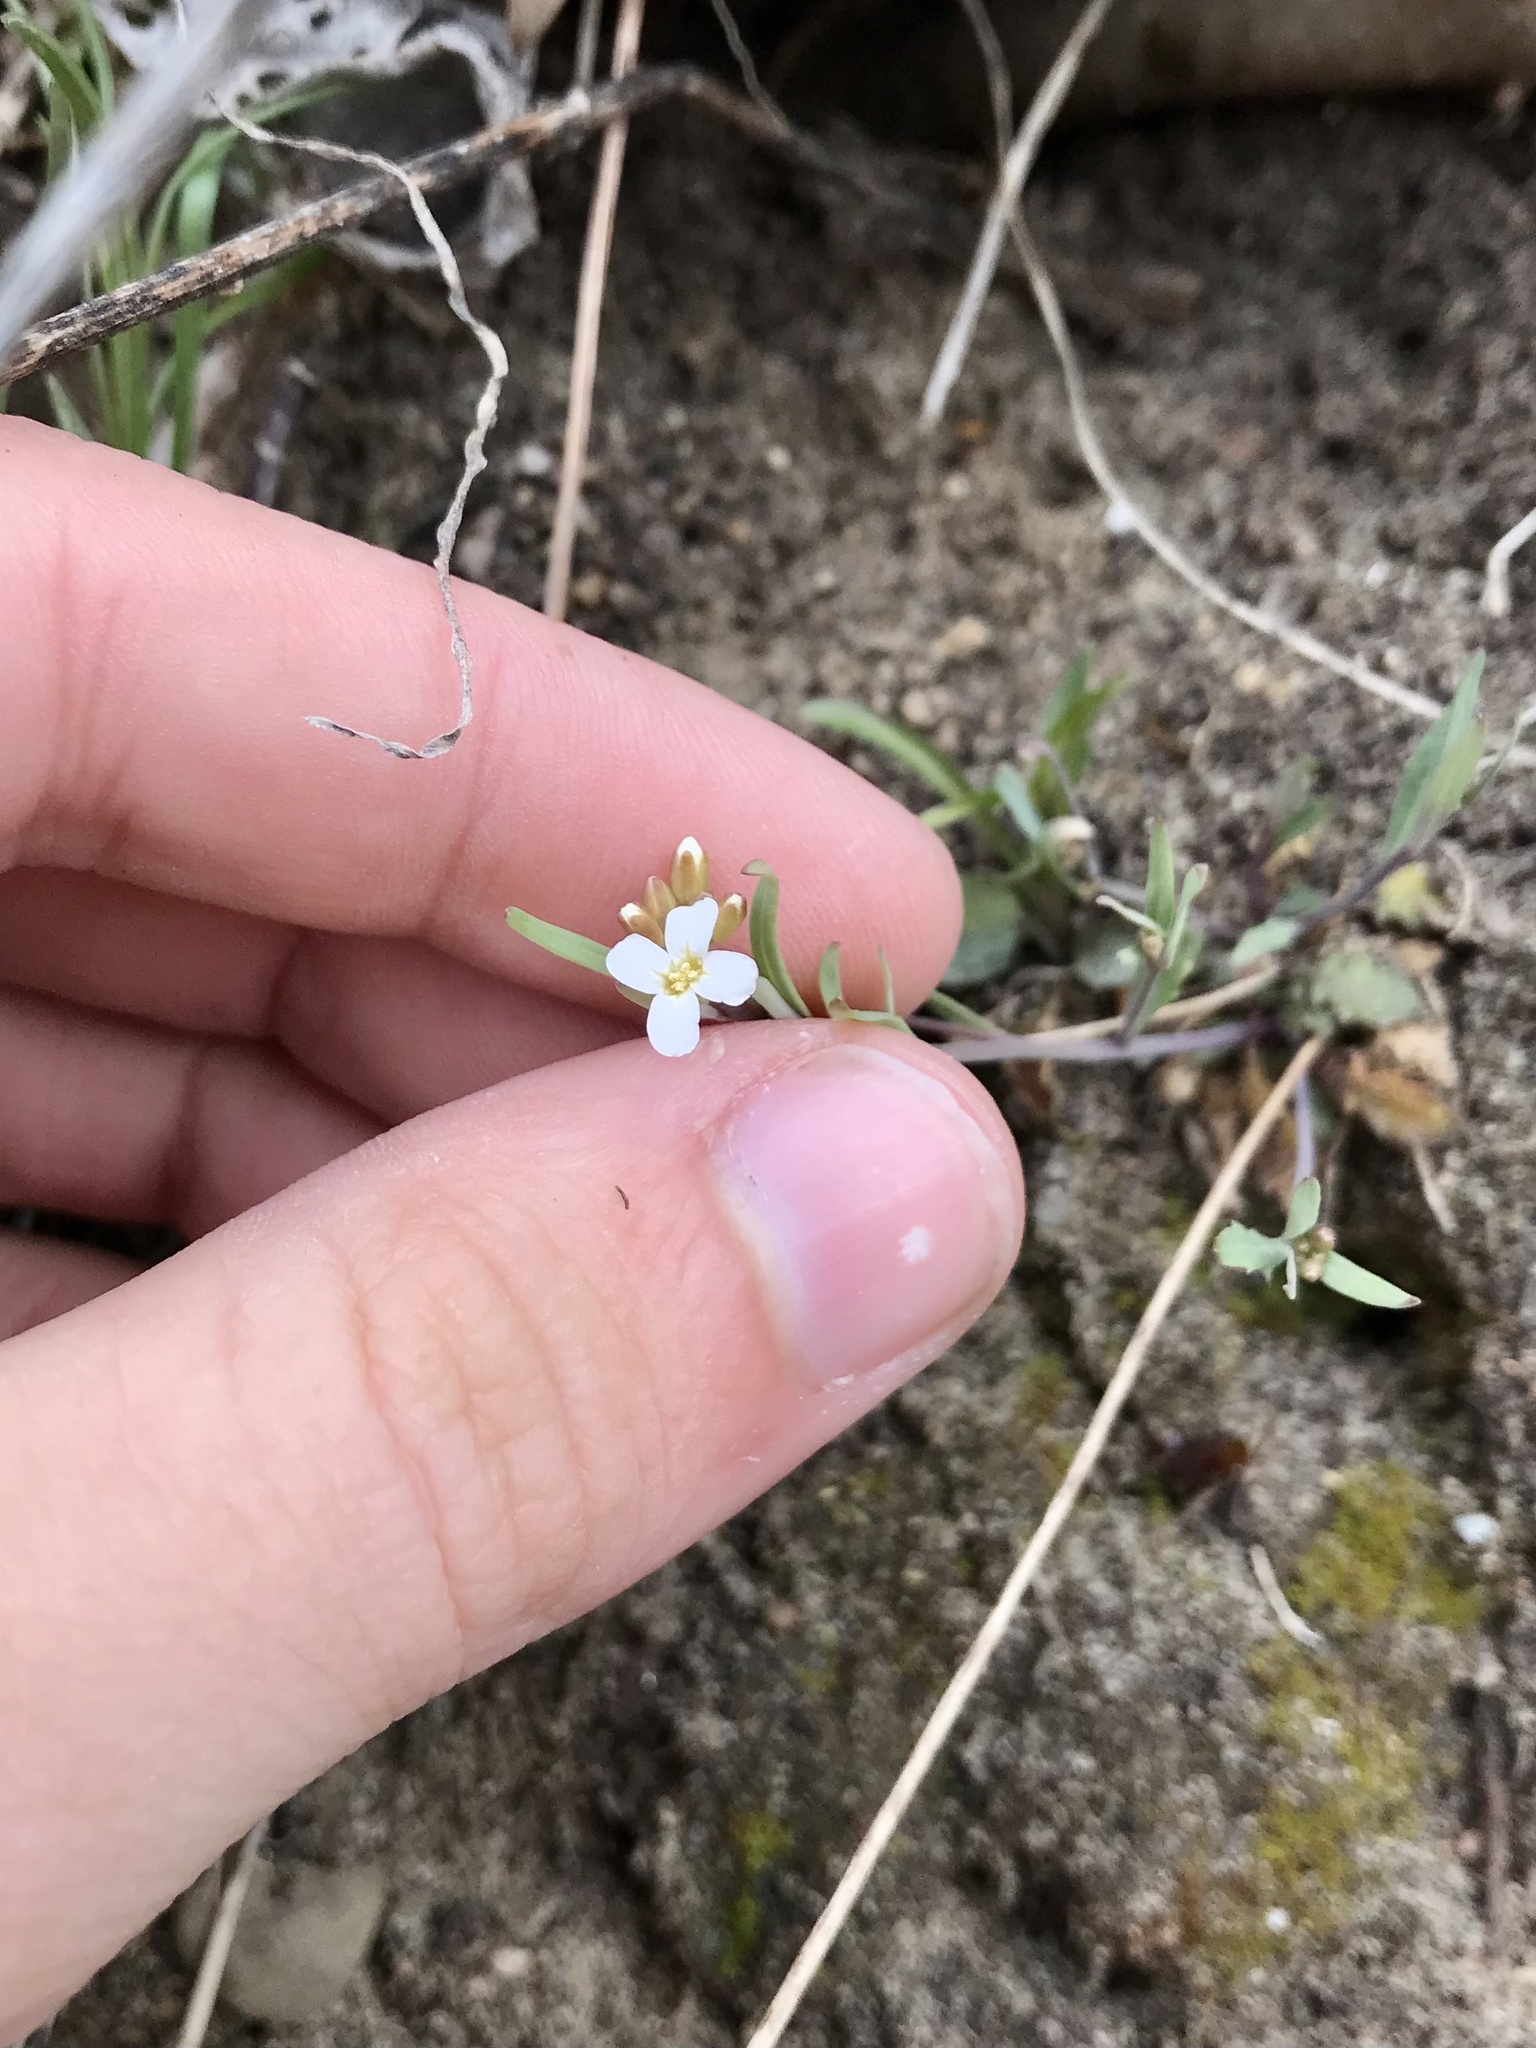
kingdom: Plantae
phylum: Tracheophyta
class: Magnoliopsida
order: Brassicales
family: Brassicaceae
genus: Arabidopsis
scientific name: Arabidopsis lyrata
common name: Lyrate rockcress
